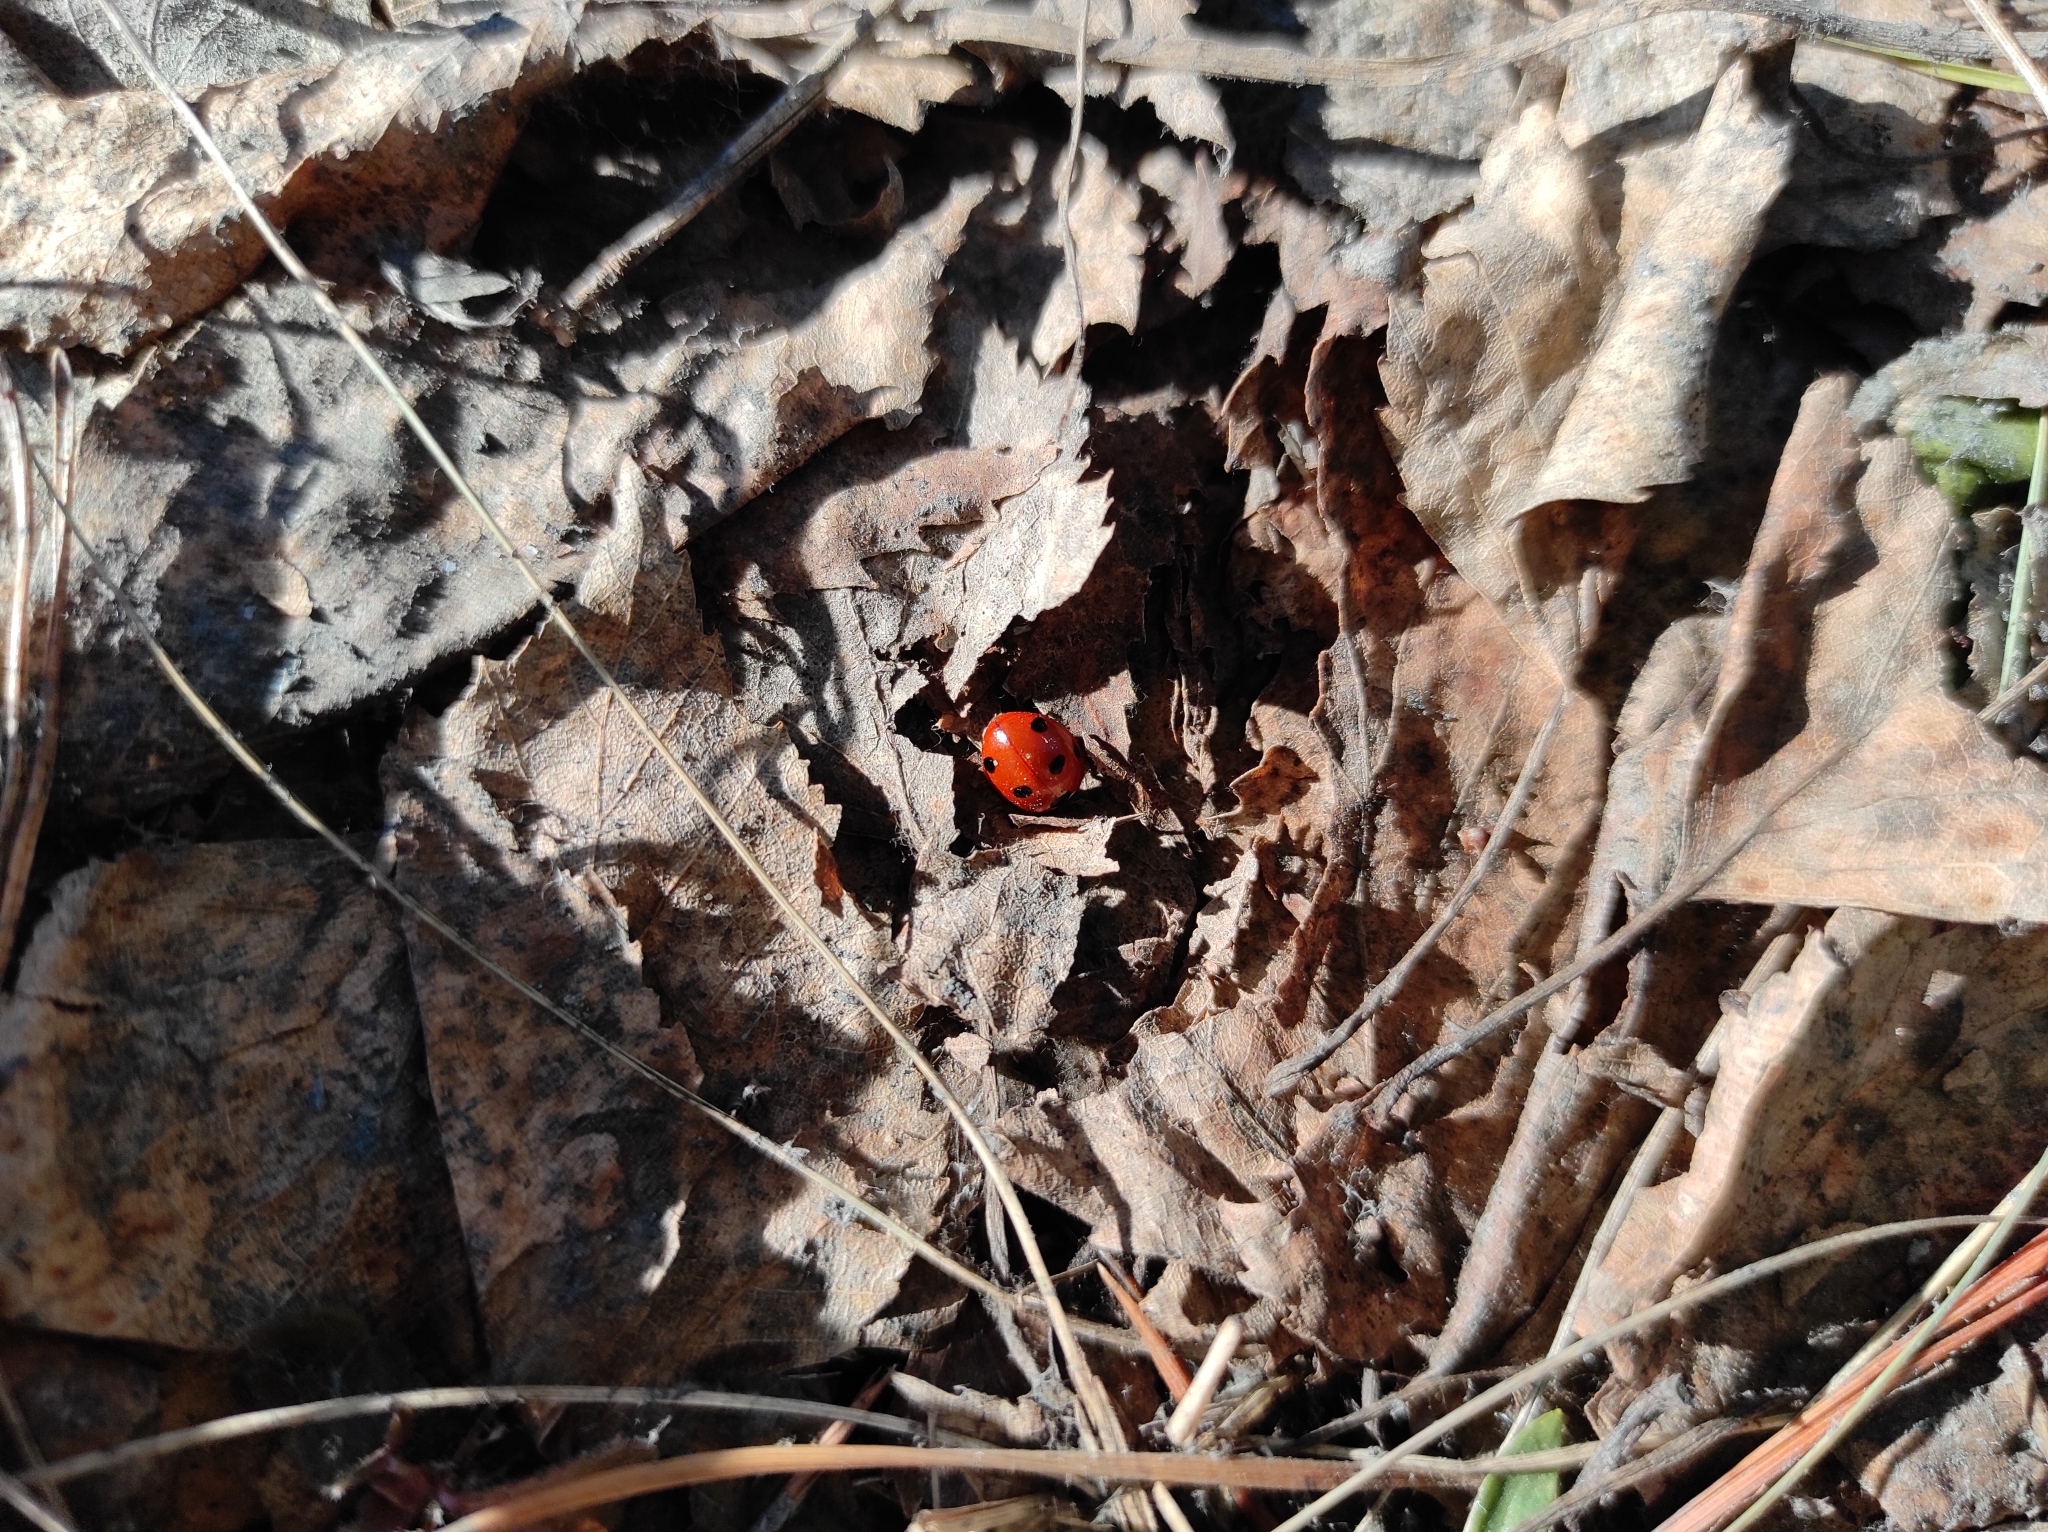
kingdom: Animalia
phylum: Arthropoda
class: Insecta
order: Coleoptera
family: Coccinellidae
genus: Coccinella
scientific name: Coccinella septempunctata
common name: Sevenspotted lady beetle
